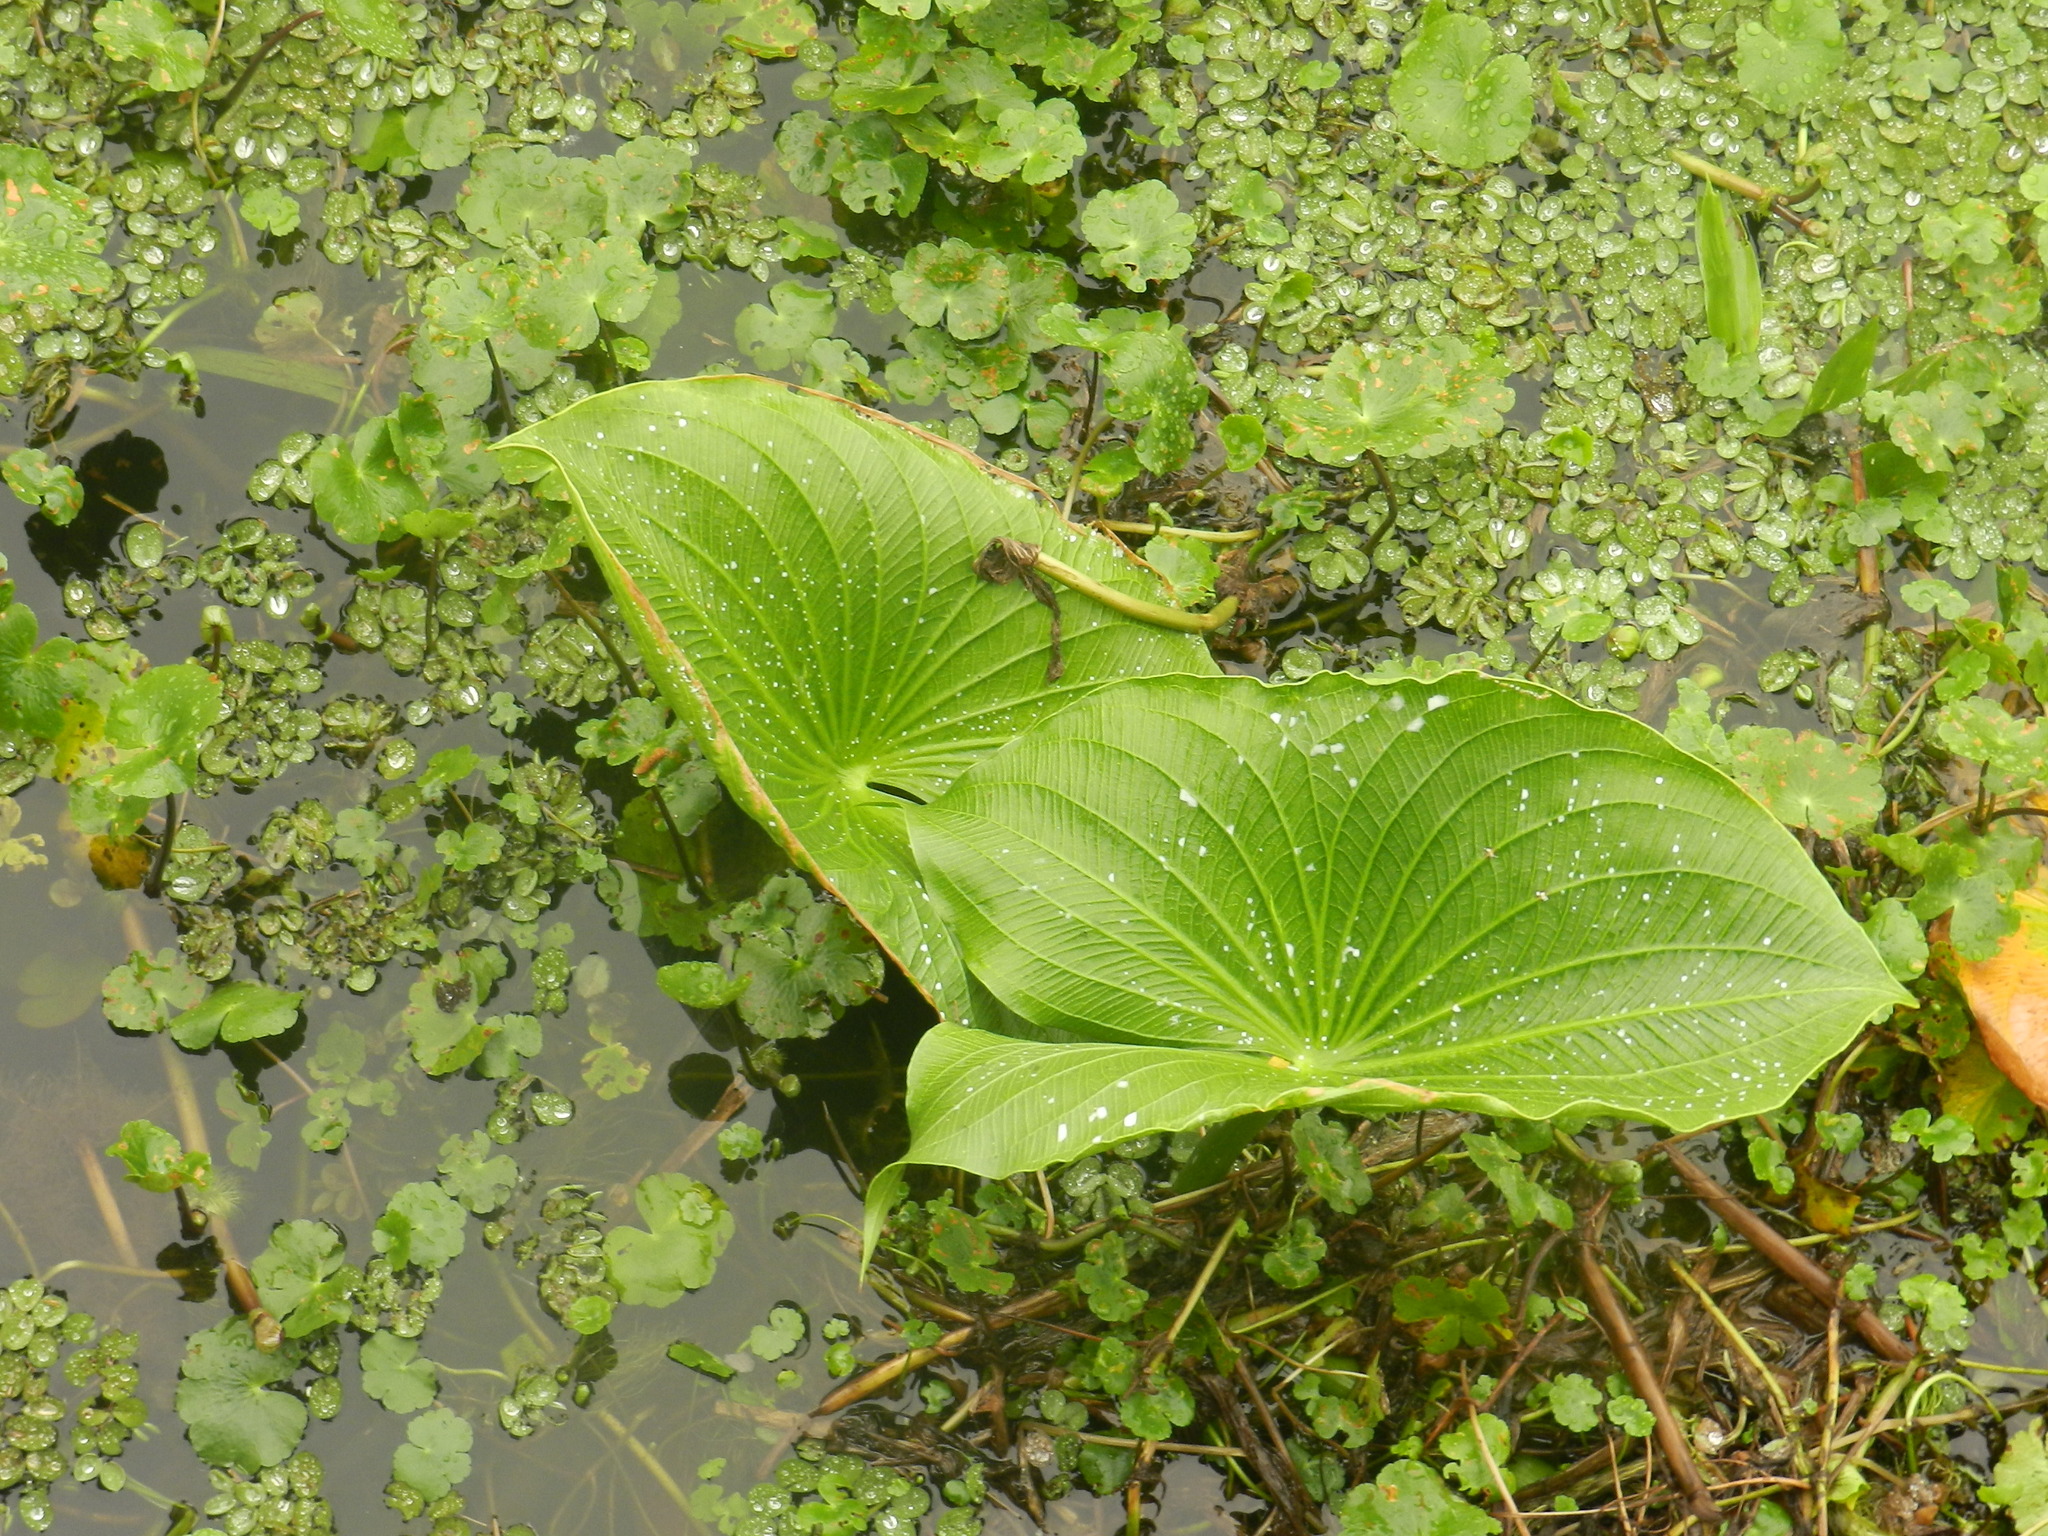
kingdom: Plantae
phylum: Tracheophyta
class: Liliopsida
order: Alismatales
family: Alismataceae
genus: Sagittaria
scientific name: Sagittaria montevidensis
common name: Giant arrowhead
